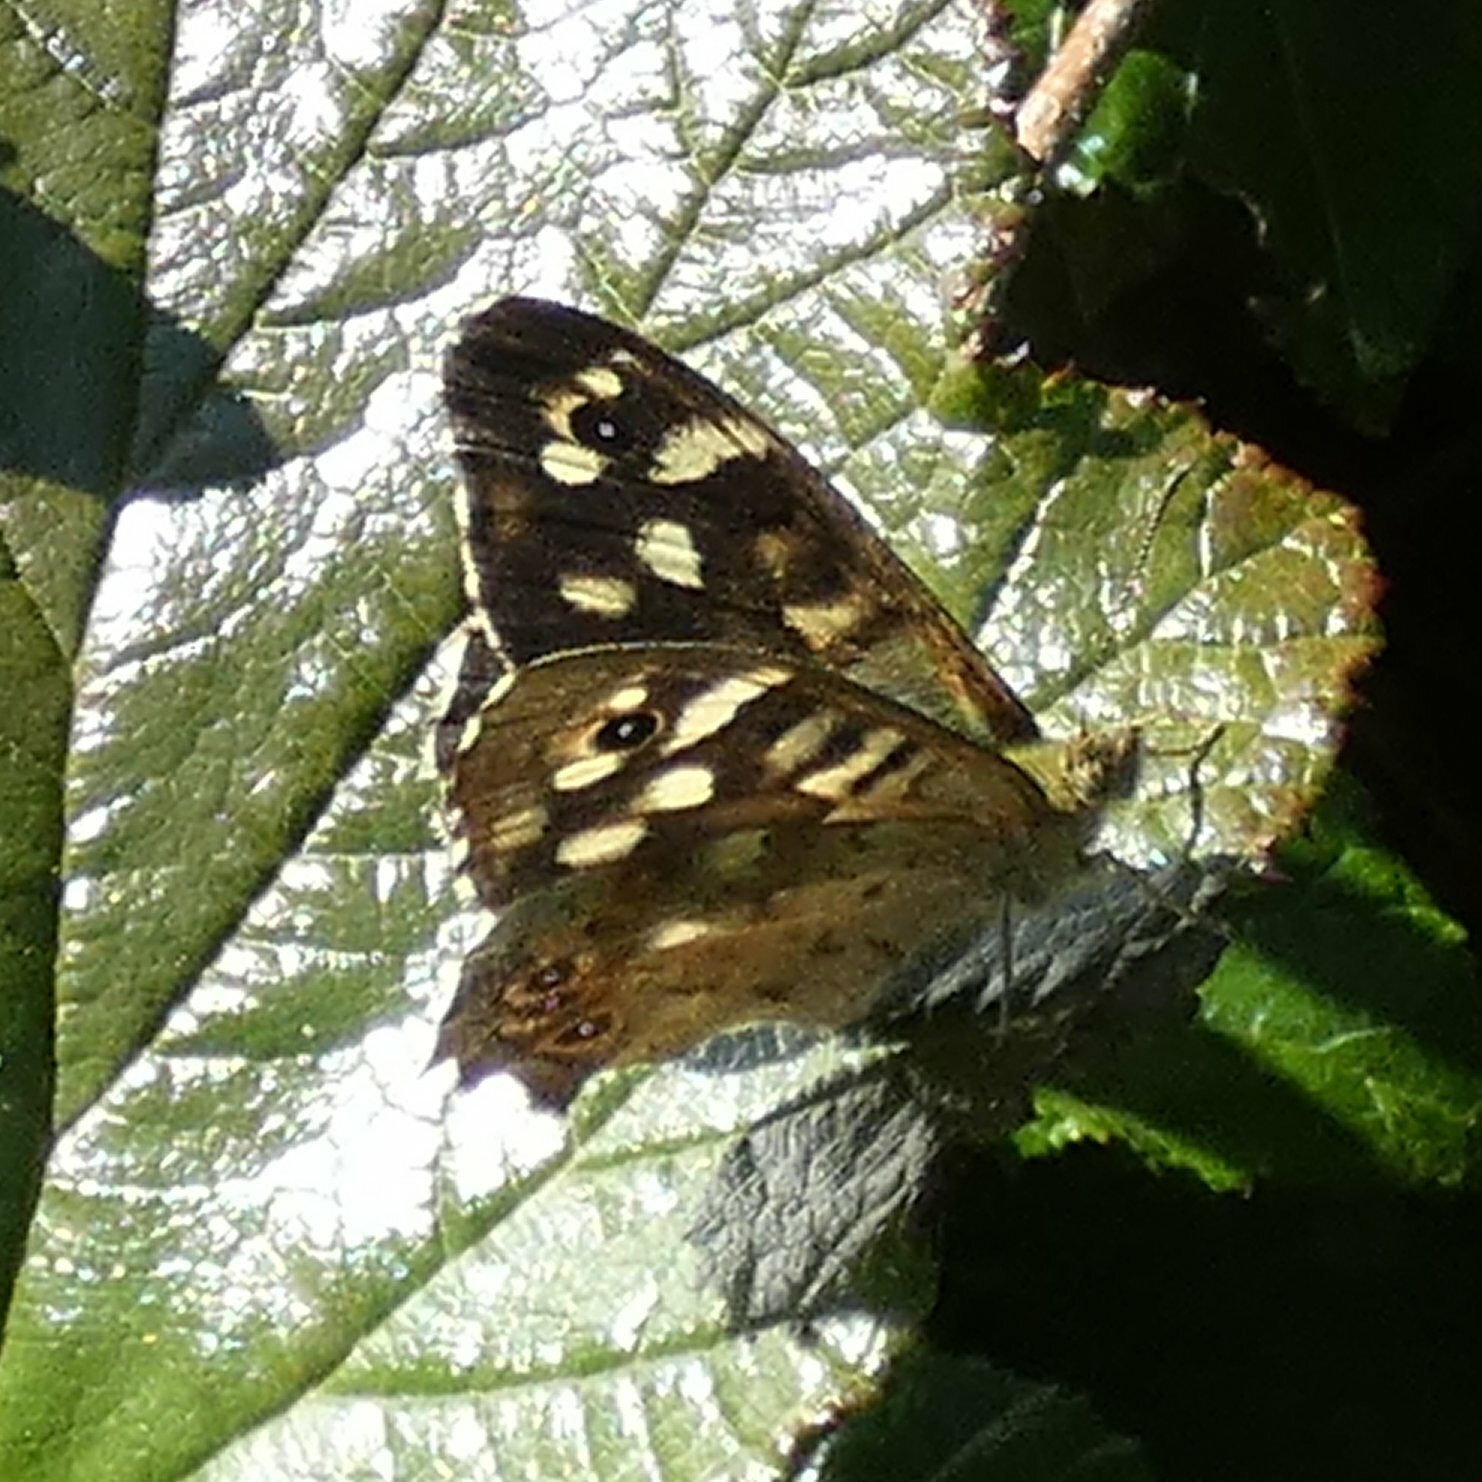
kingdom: Animalia
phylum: Arthropoda
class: Insecta
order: Lepidoptera
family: Nymphalidae
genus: Pararge
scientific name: Pararge aegeria
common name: Speckled wood
